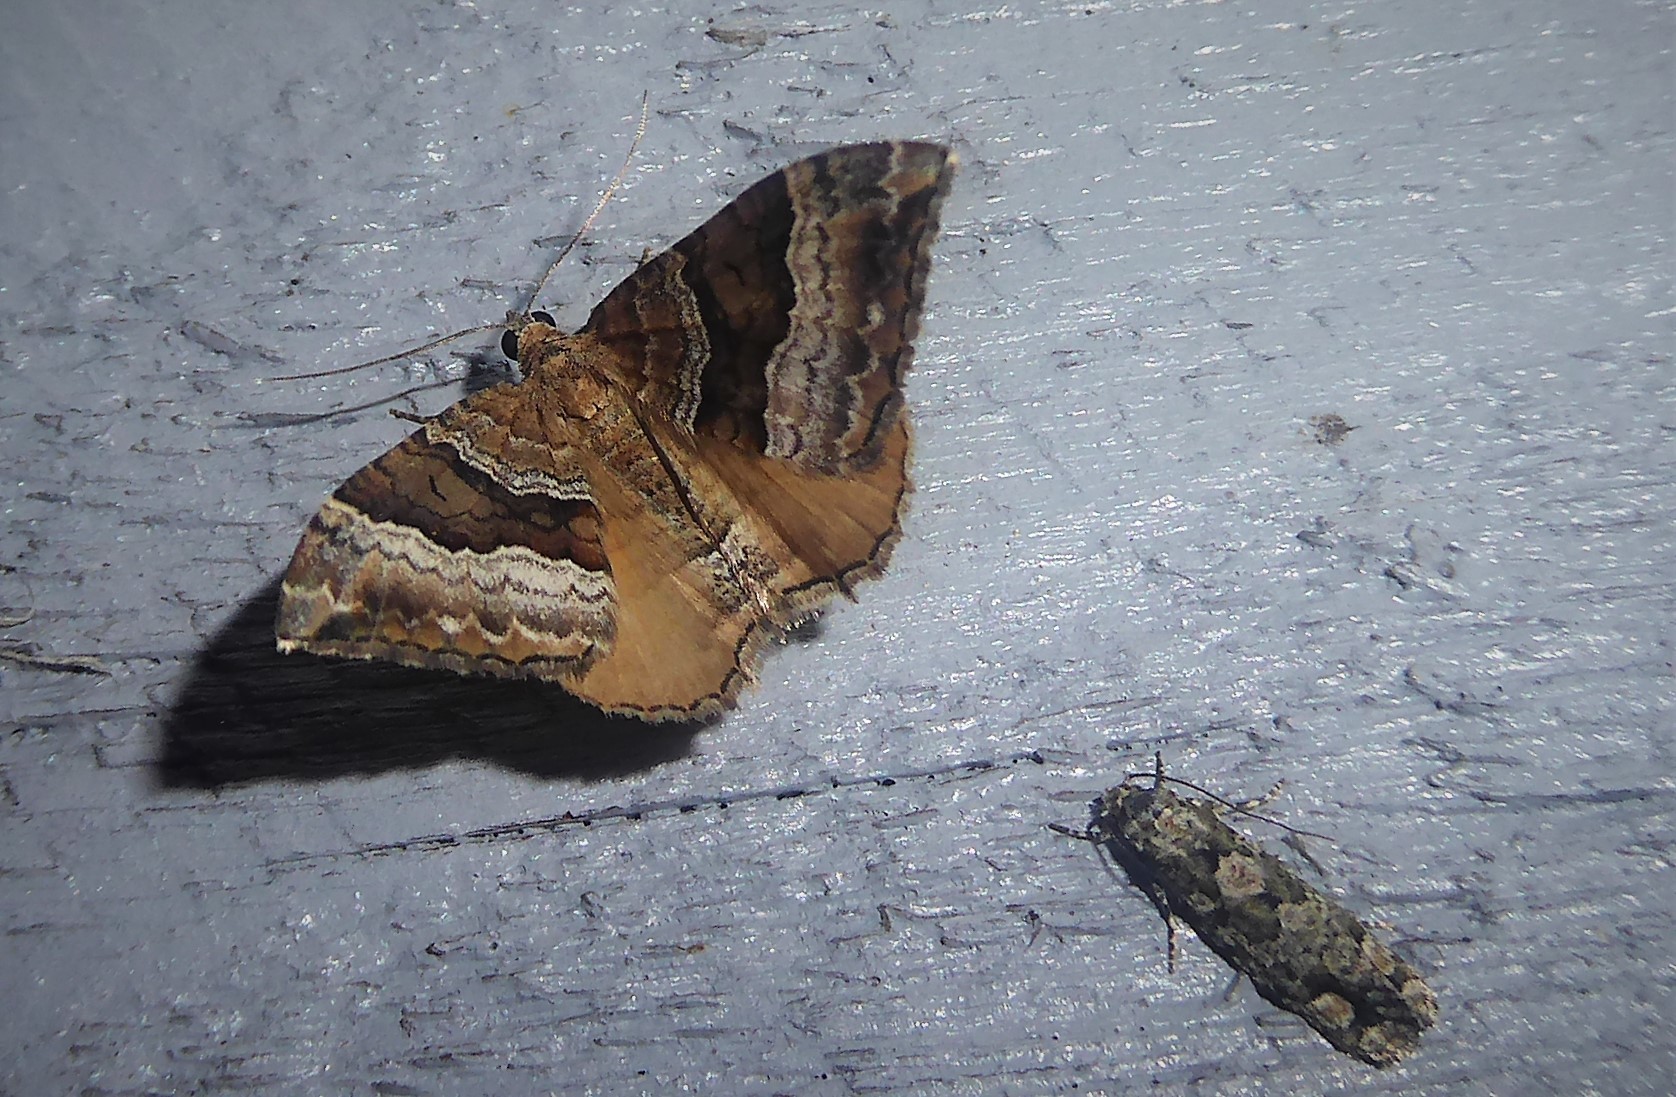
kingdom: Animalia
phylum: Arthropoda
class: Insecta
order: Lepidoptera
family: Geometridae
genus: Hydriomena
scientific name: Hydriomena deltoidata
